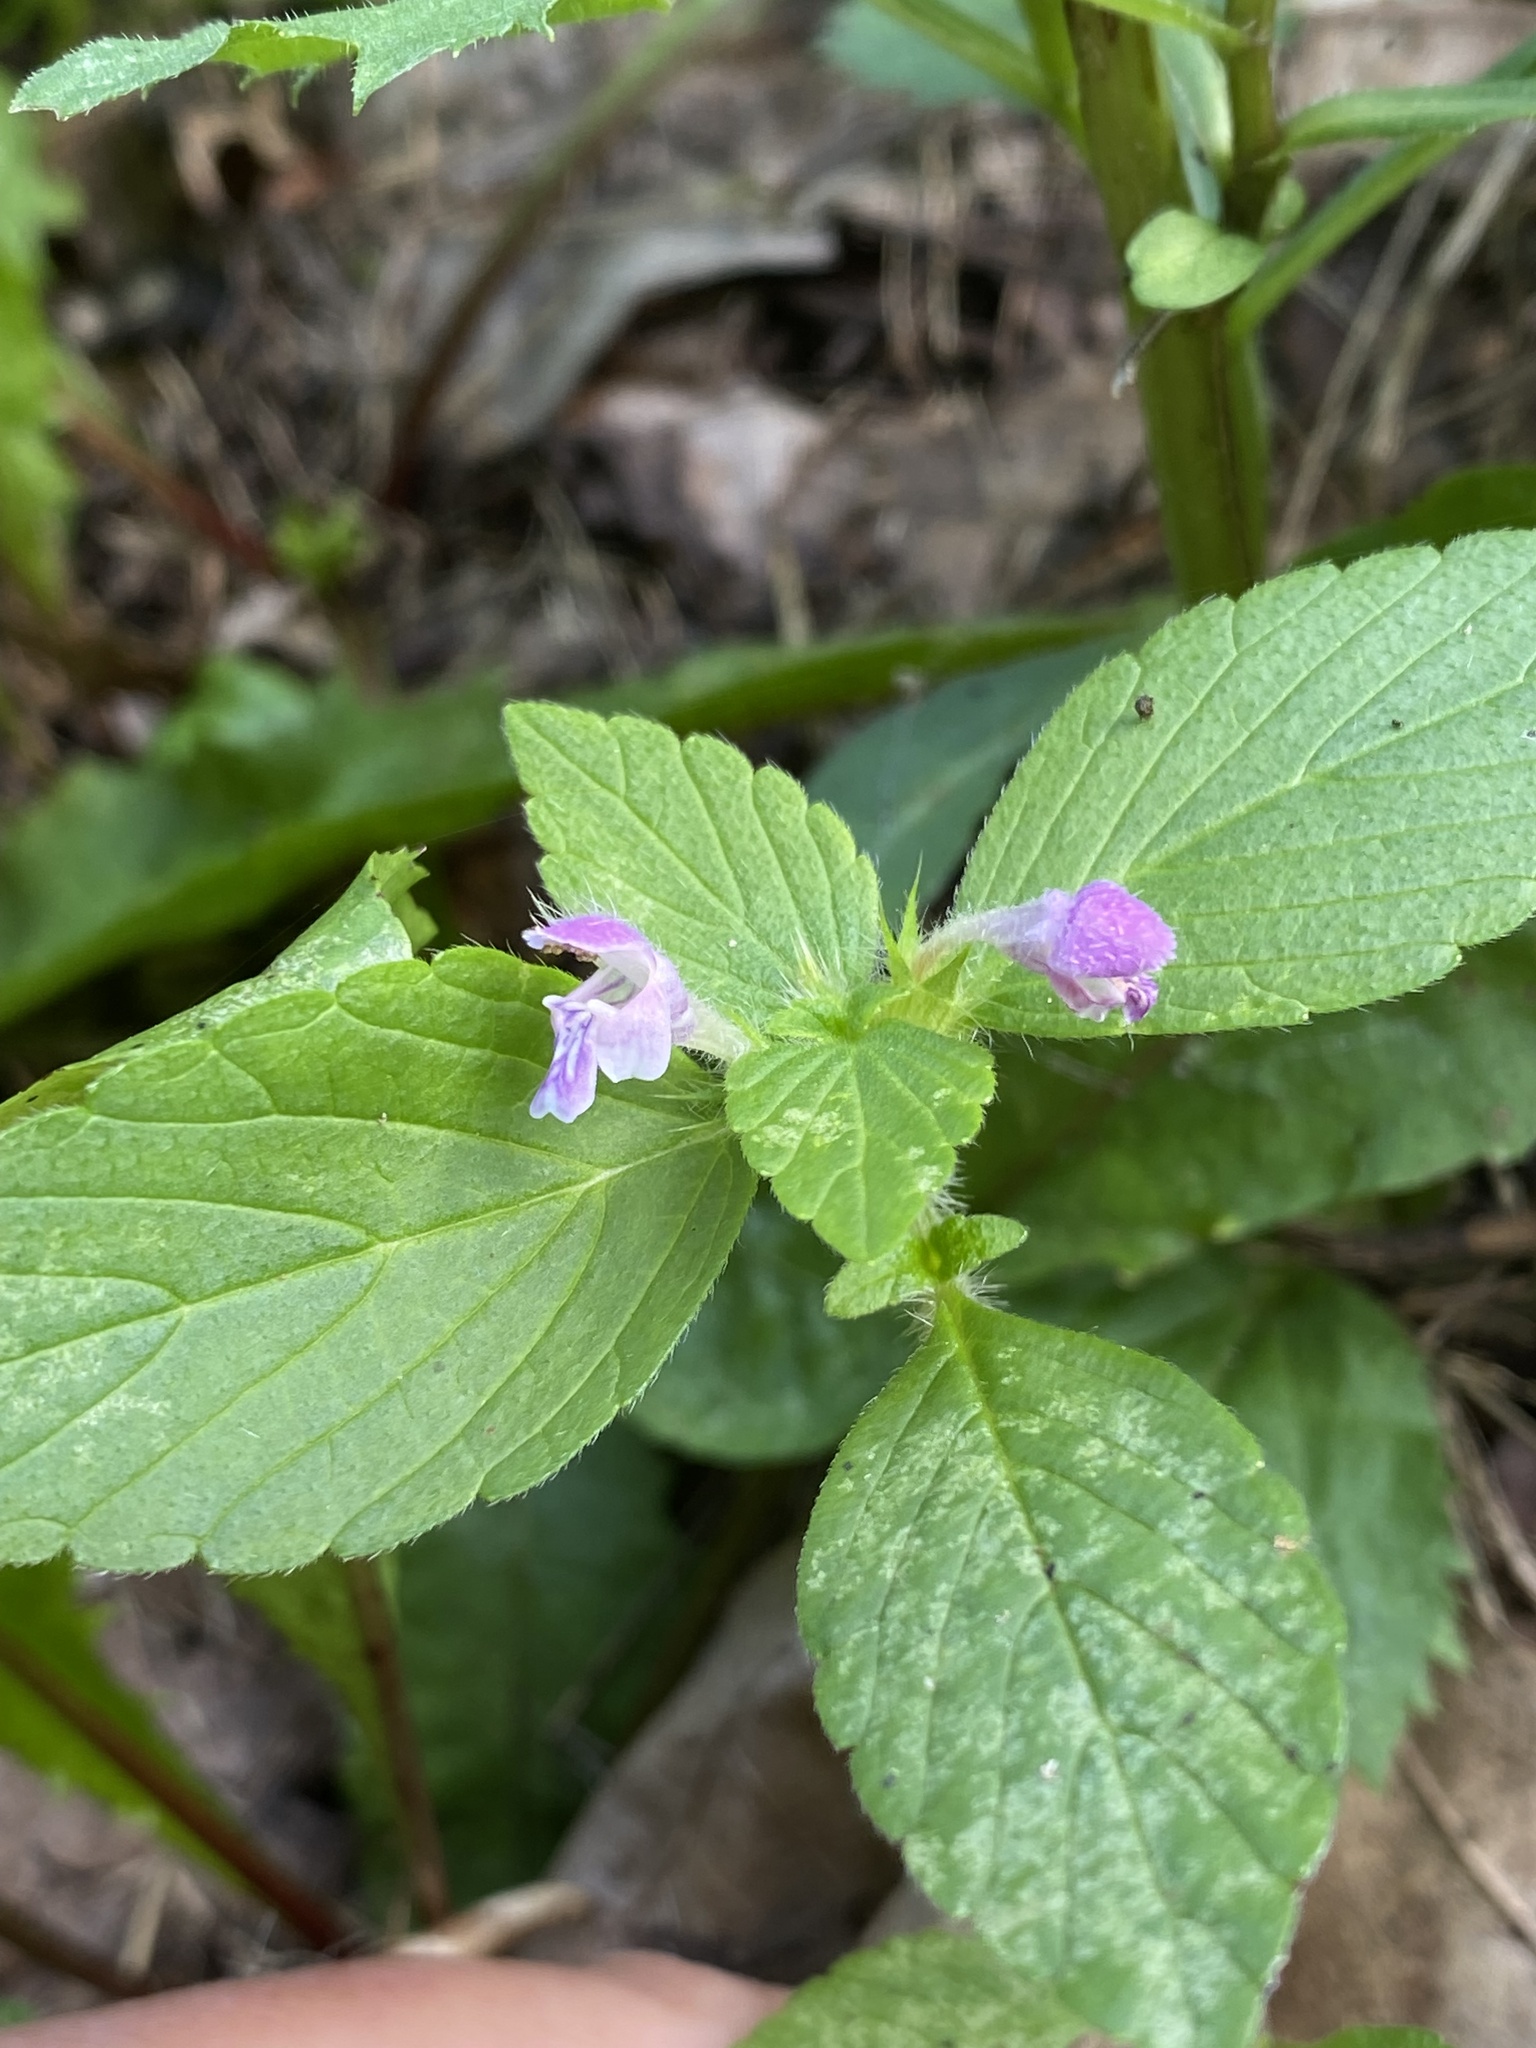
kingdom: Plantae
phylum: Tracheophyta
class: Magnoliopsida
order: Lamiales
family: Lamiaceae
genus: Galeopsis
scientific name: Galeopsis bifida
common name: Bifid hemp-nettle
